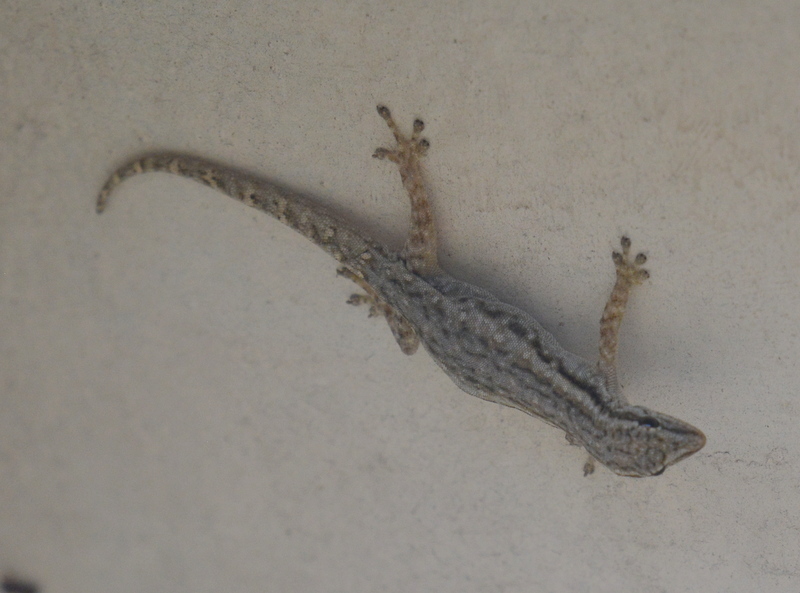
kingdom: Animalia
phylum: Chordata
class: Squamata
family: Gekkonidae
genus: Lygodactylus
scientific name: Lygodactylus capensis
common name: Cape dwarf gecko
